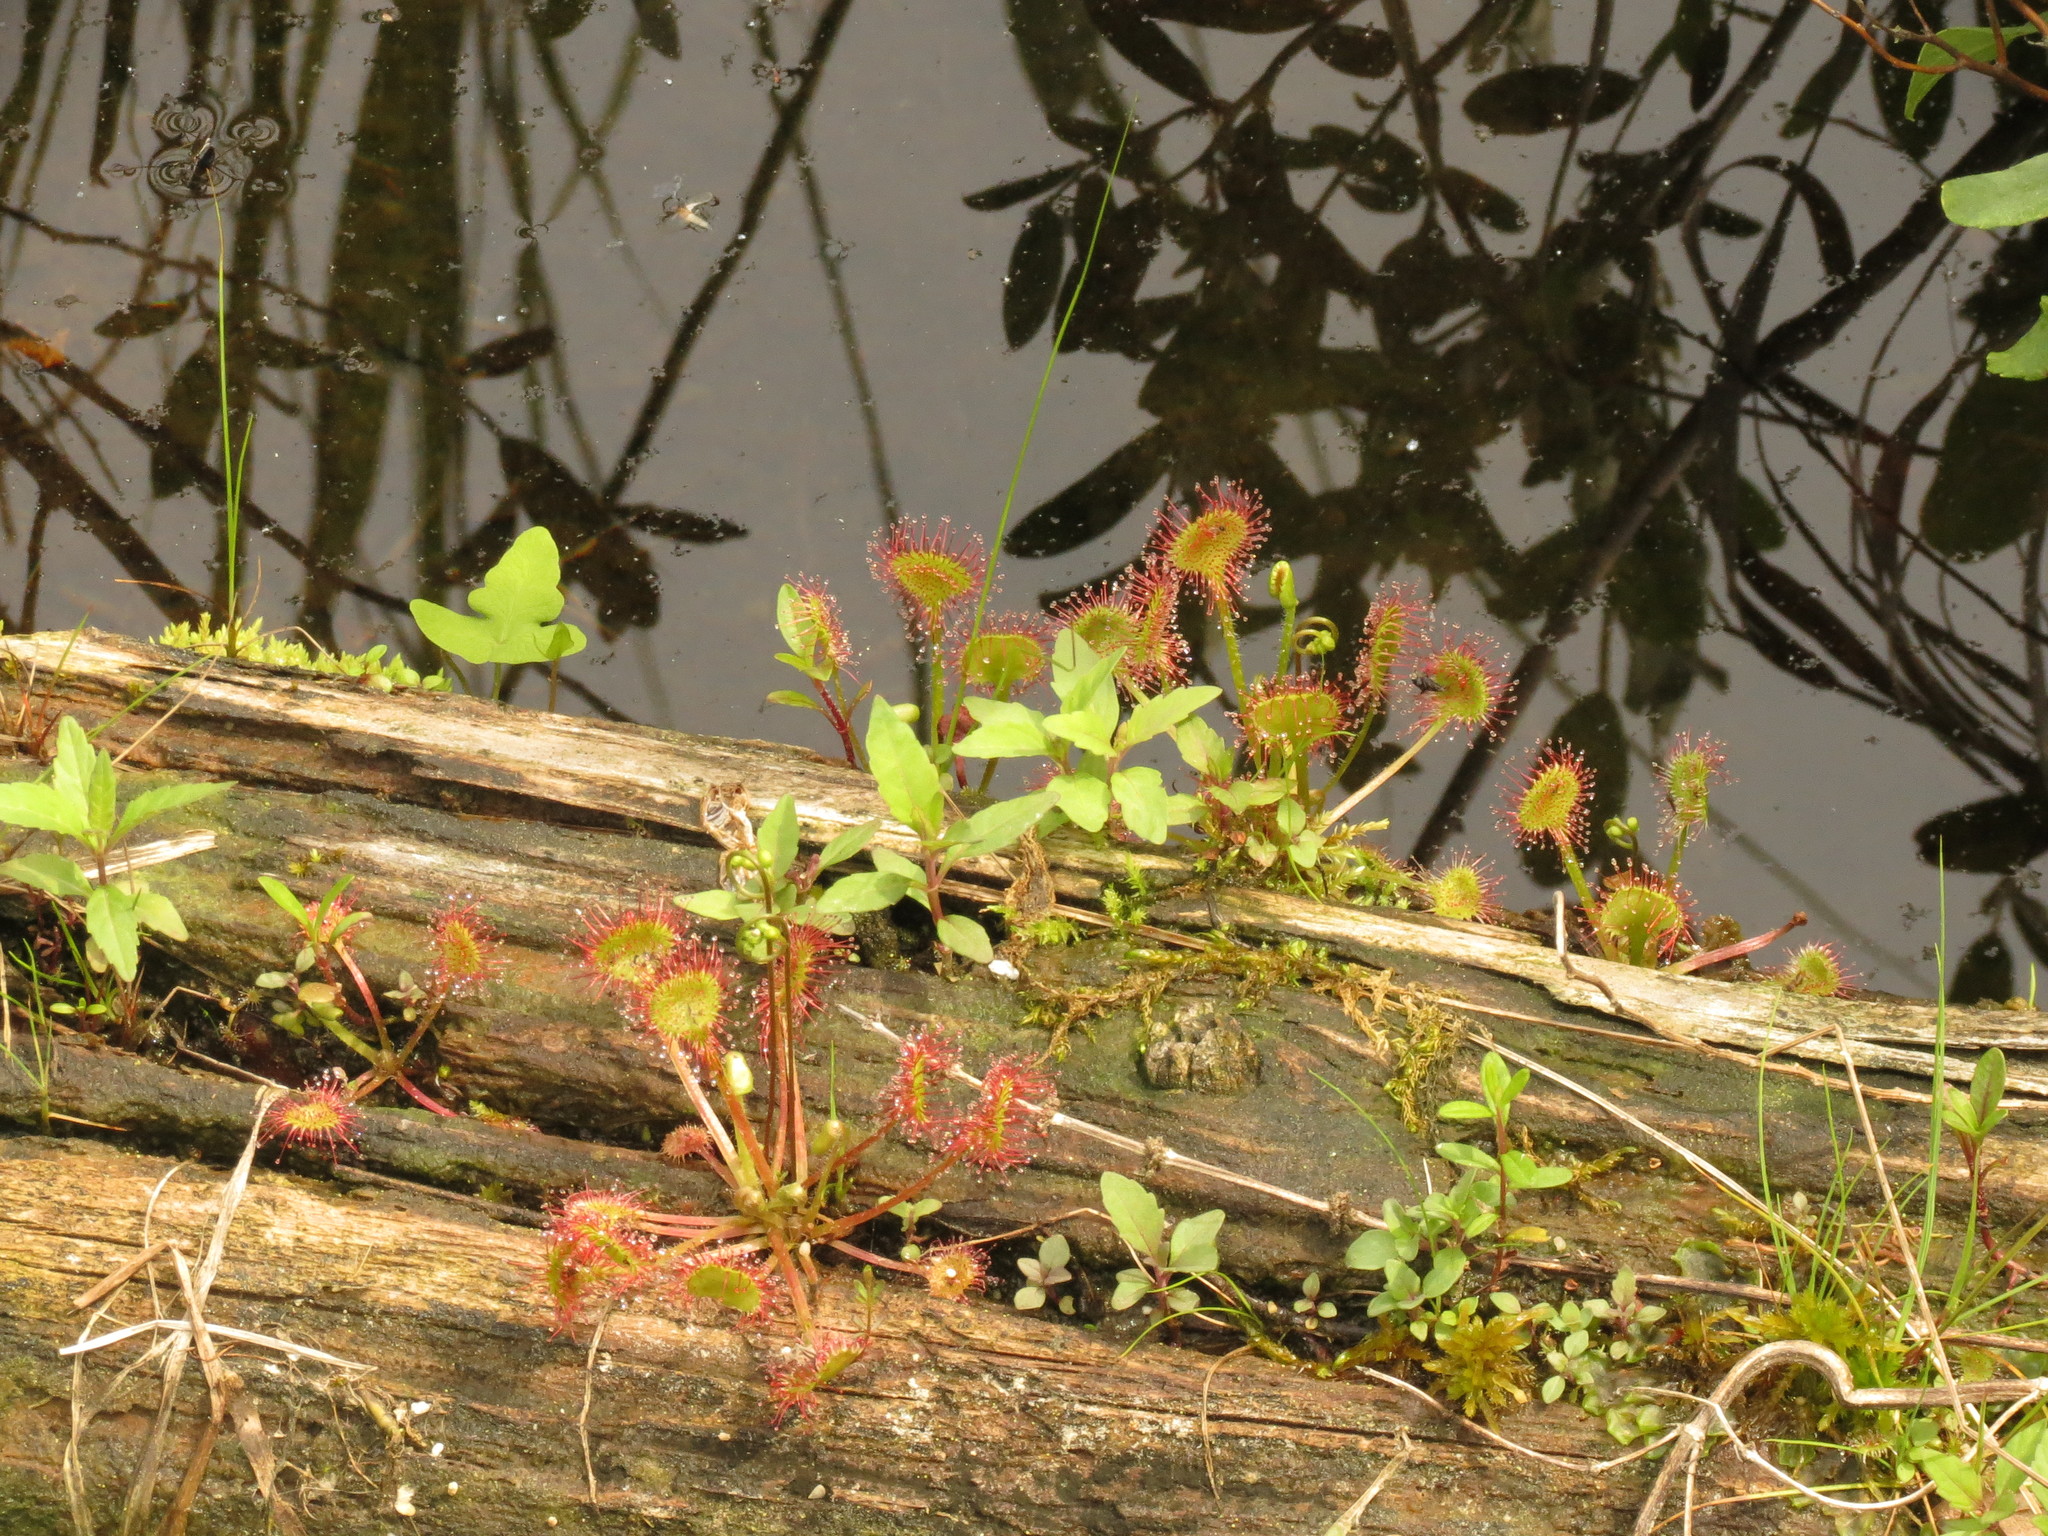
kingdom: Plantae
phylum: Tracheophyta
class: Magnoliopsida
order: Caryophyllales
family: Droseraceae
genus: Drosera
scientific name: Drosera rotundifolia
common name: Round-leaved sundew
